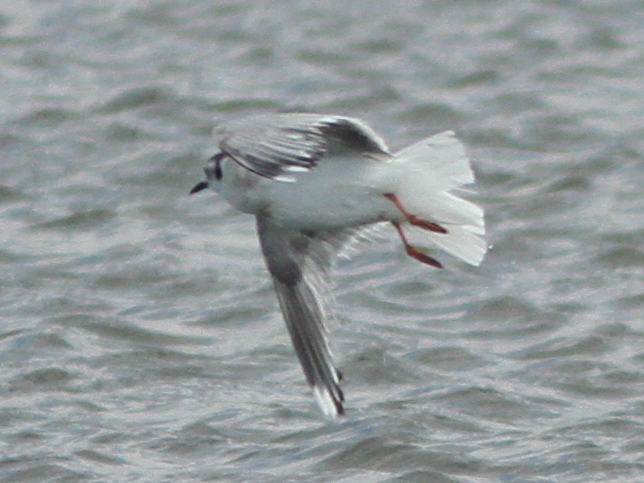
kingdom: Animalia
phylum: Chordata
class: Aves
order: Charadriiformes
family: Laridae
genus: Hydrocoloeus
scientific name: Hydrocoloeus minutus
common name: Little gull
